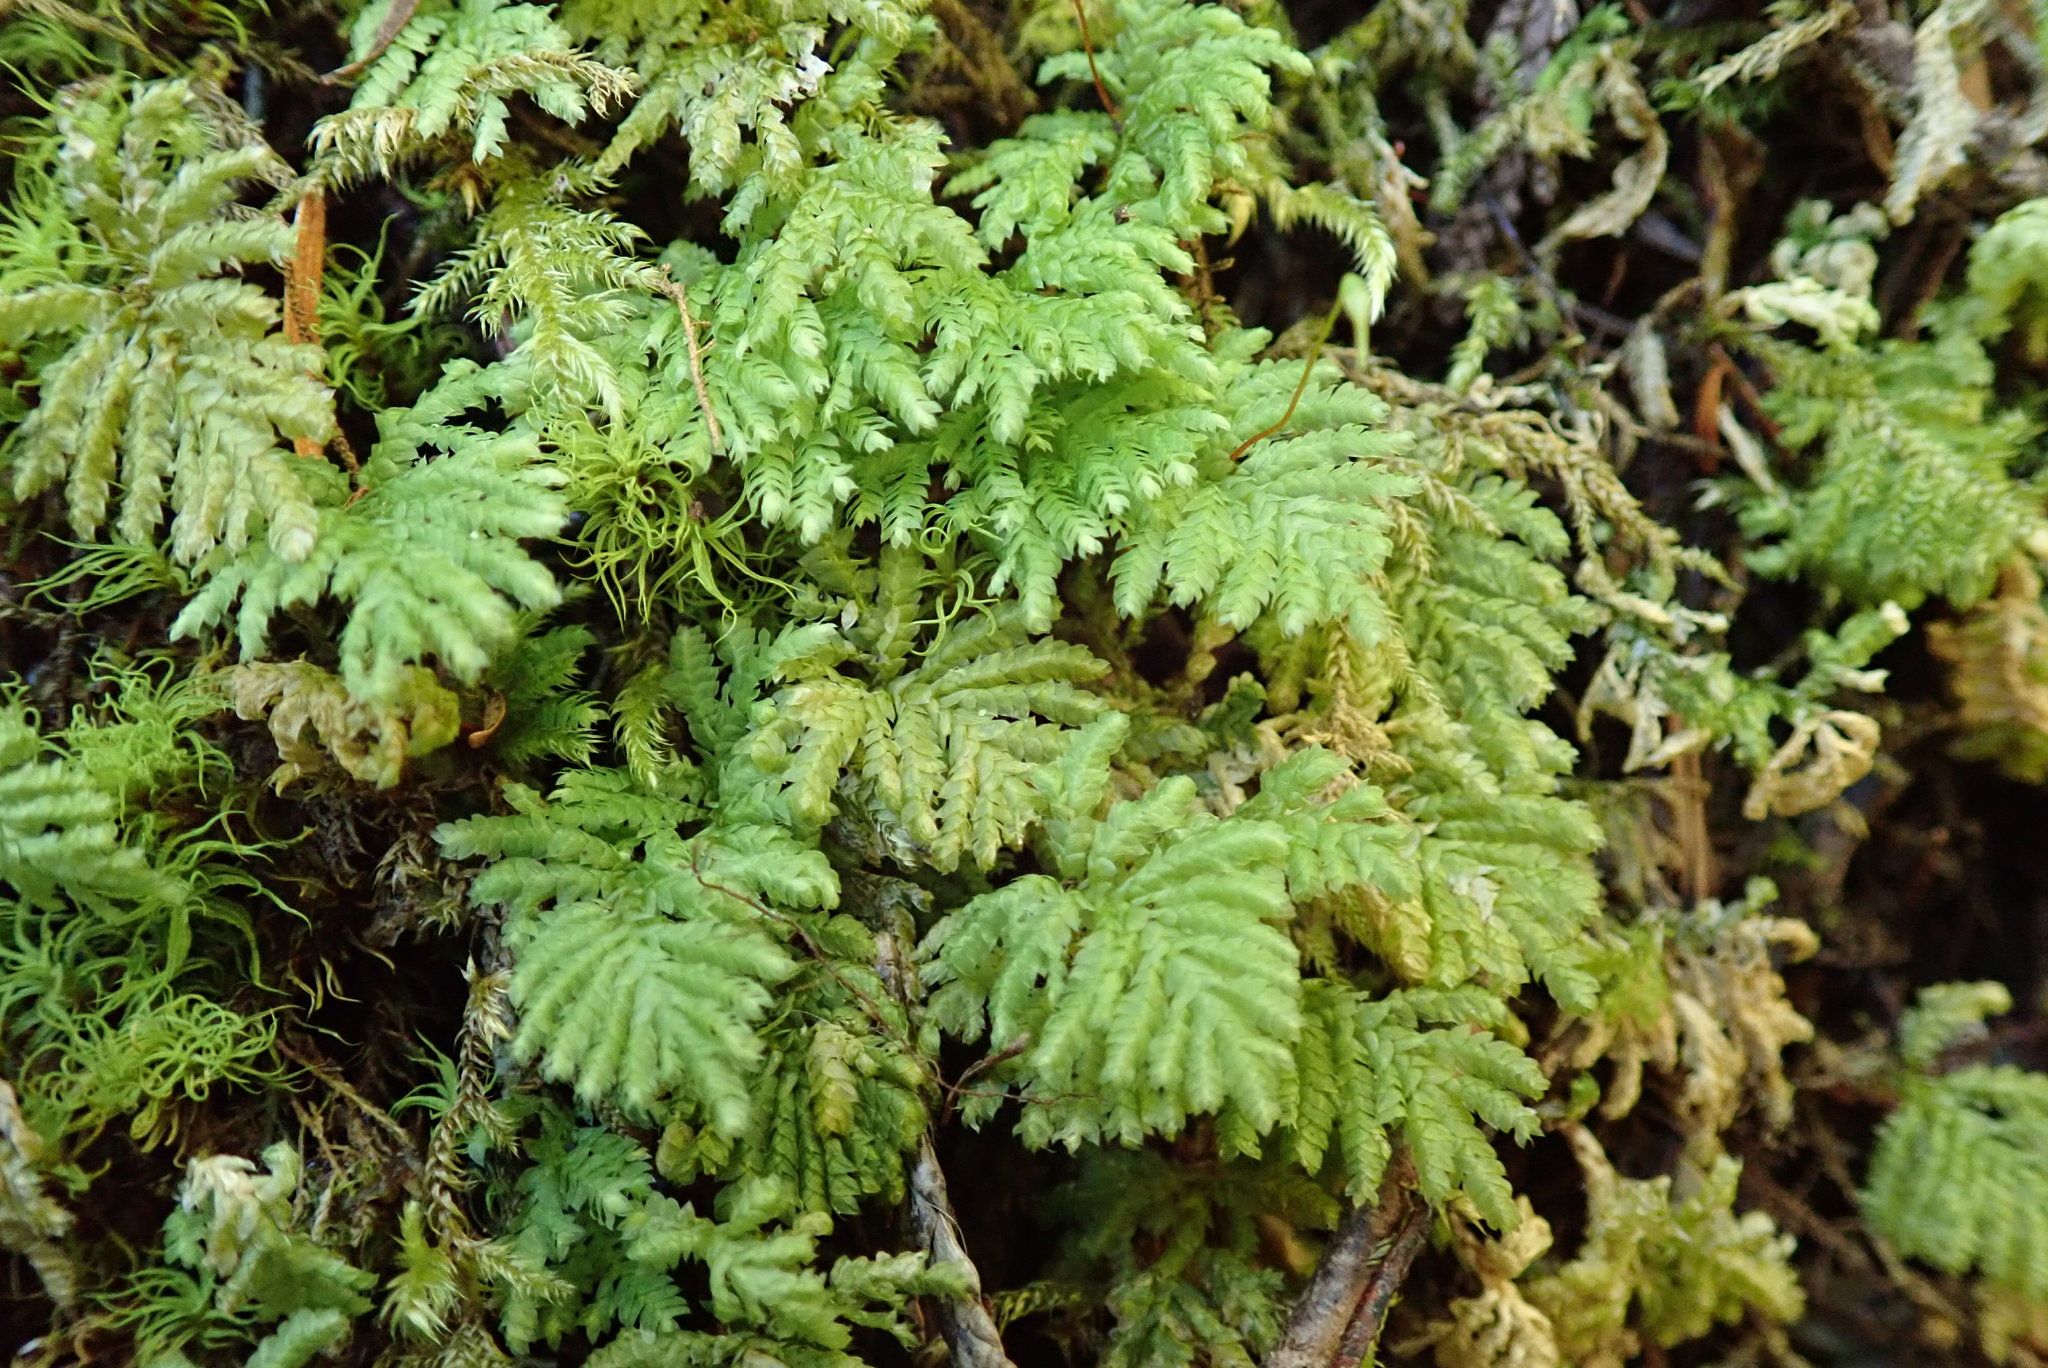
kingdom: Plantae
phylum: Bryophyta
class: Bryopsida
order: Hypopterygiales
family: Hypopterygiaceae
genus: Hypopterygium
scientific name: Hypopterygium flavolimbatum
